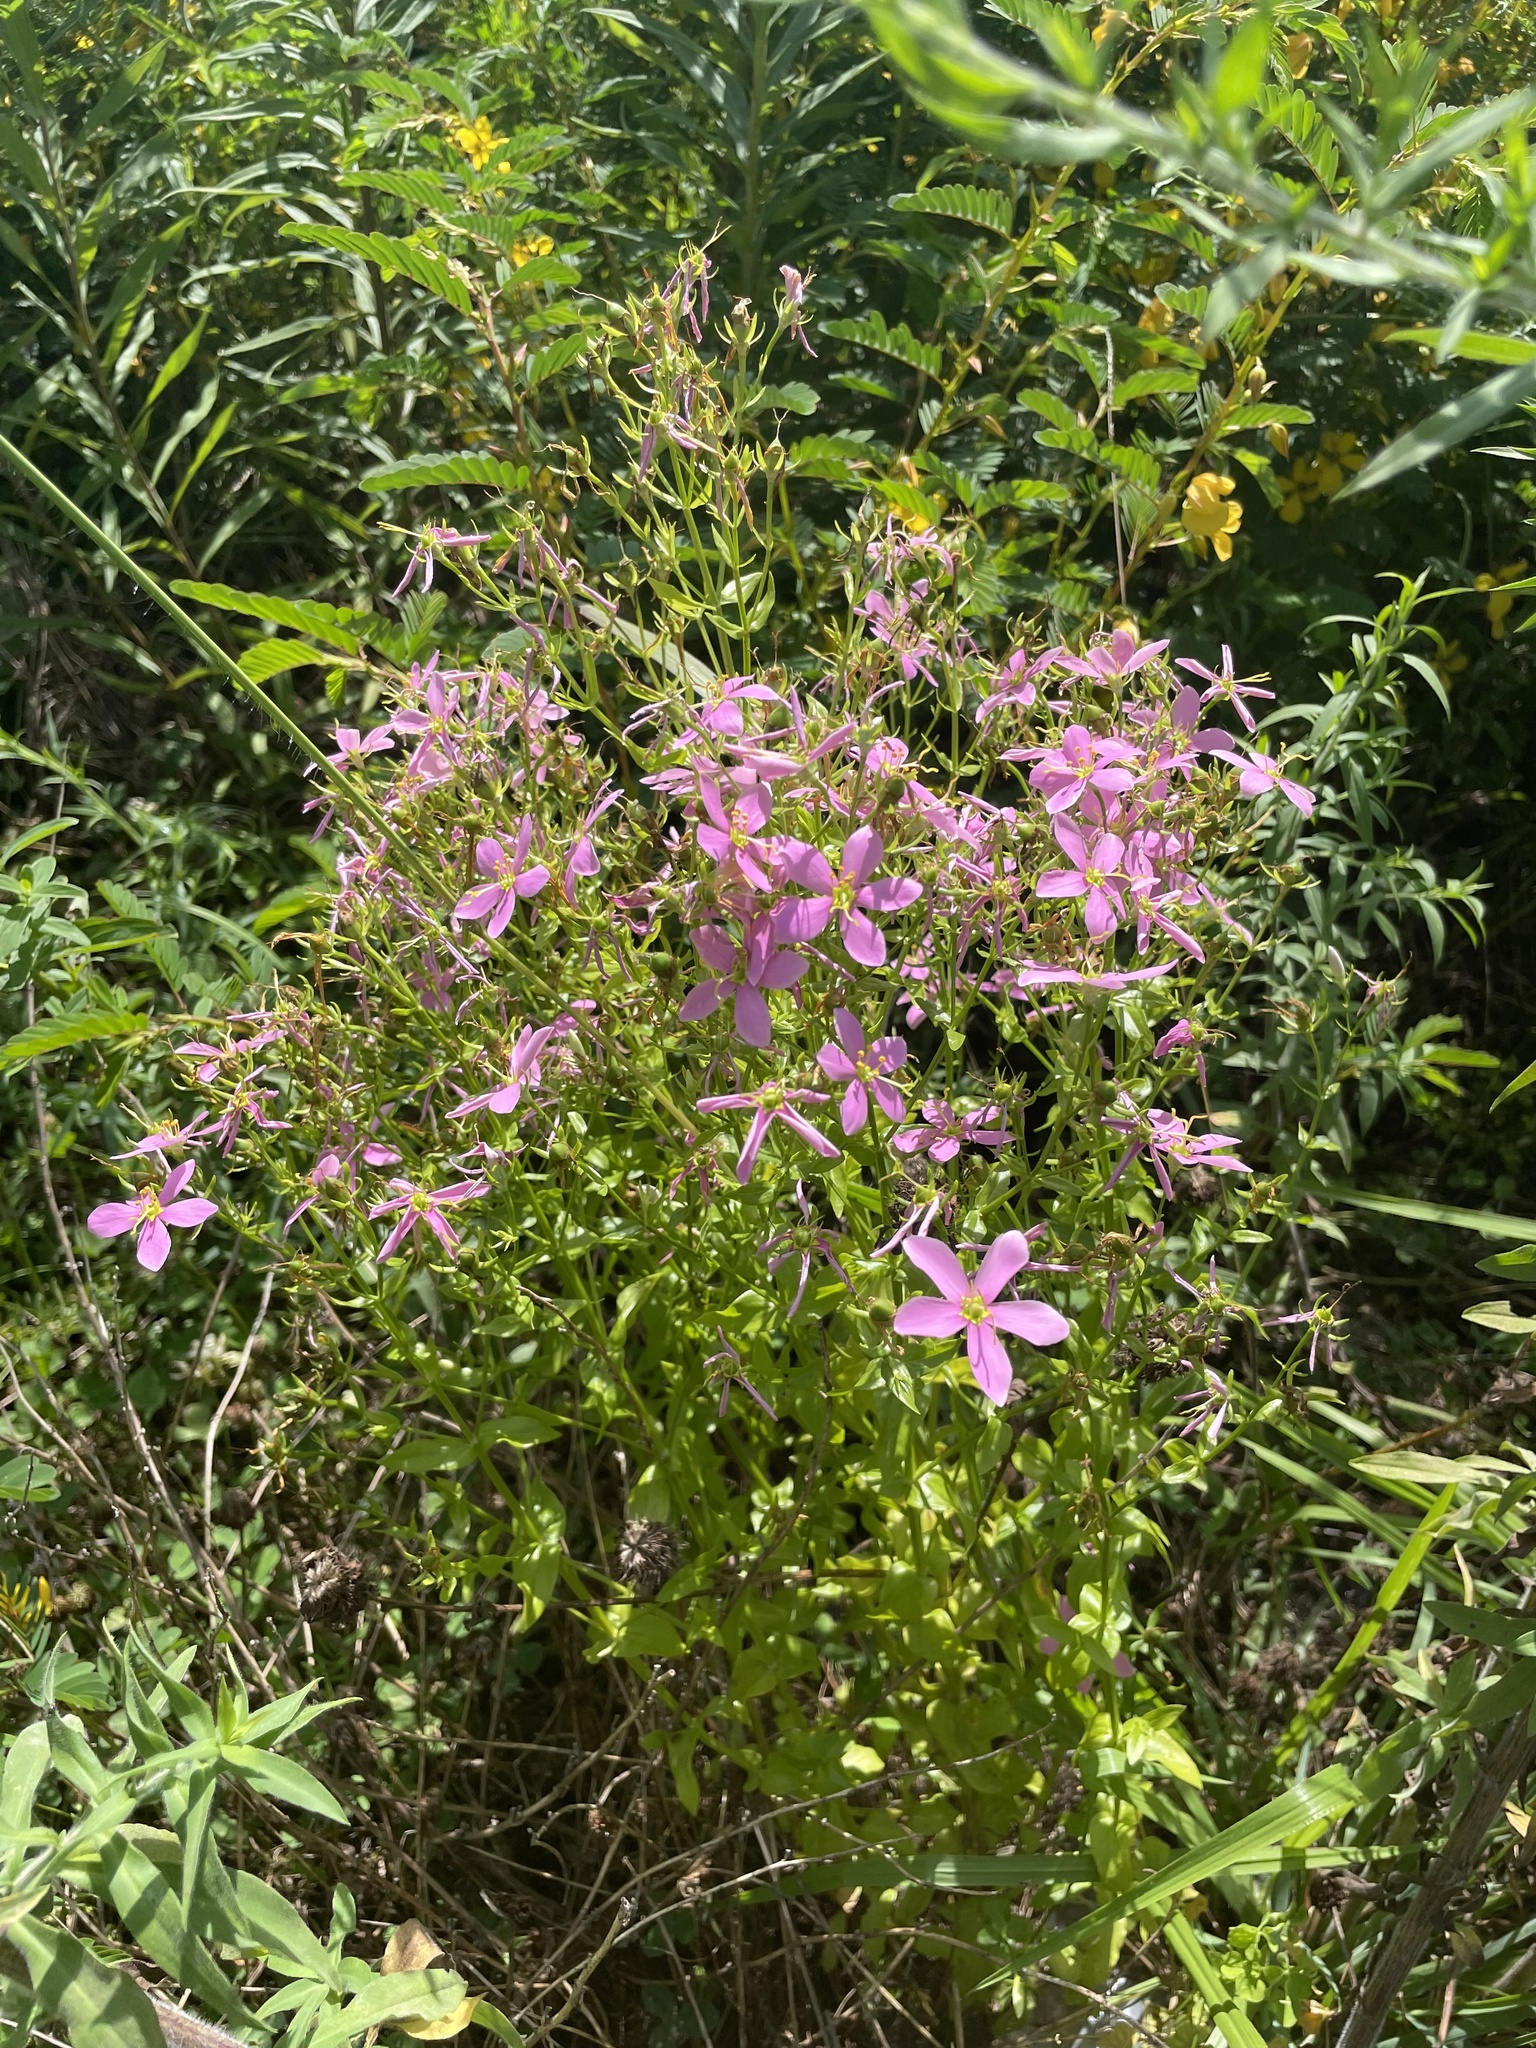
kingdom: Plantae
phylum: Tracheophyta
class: Magnoliopsida
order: Gentianales
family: Gentianaceae
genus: Sabatia
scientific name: Sabatia angularis
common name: Rose-pink
